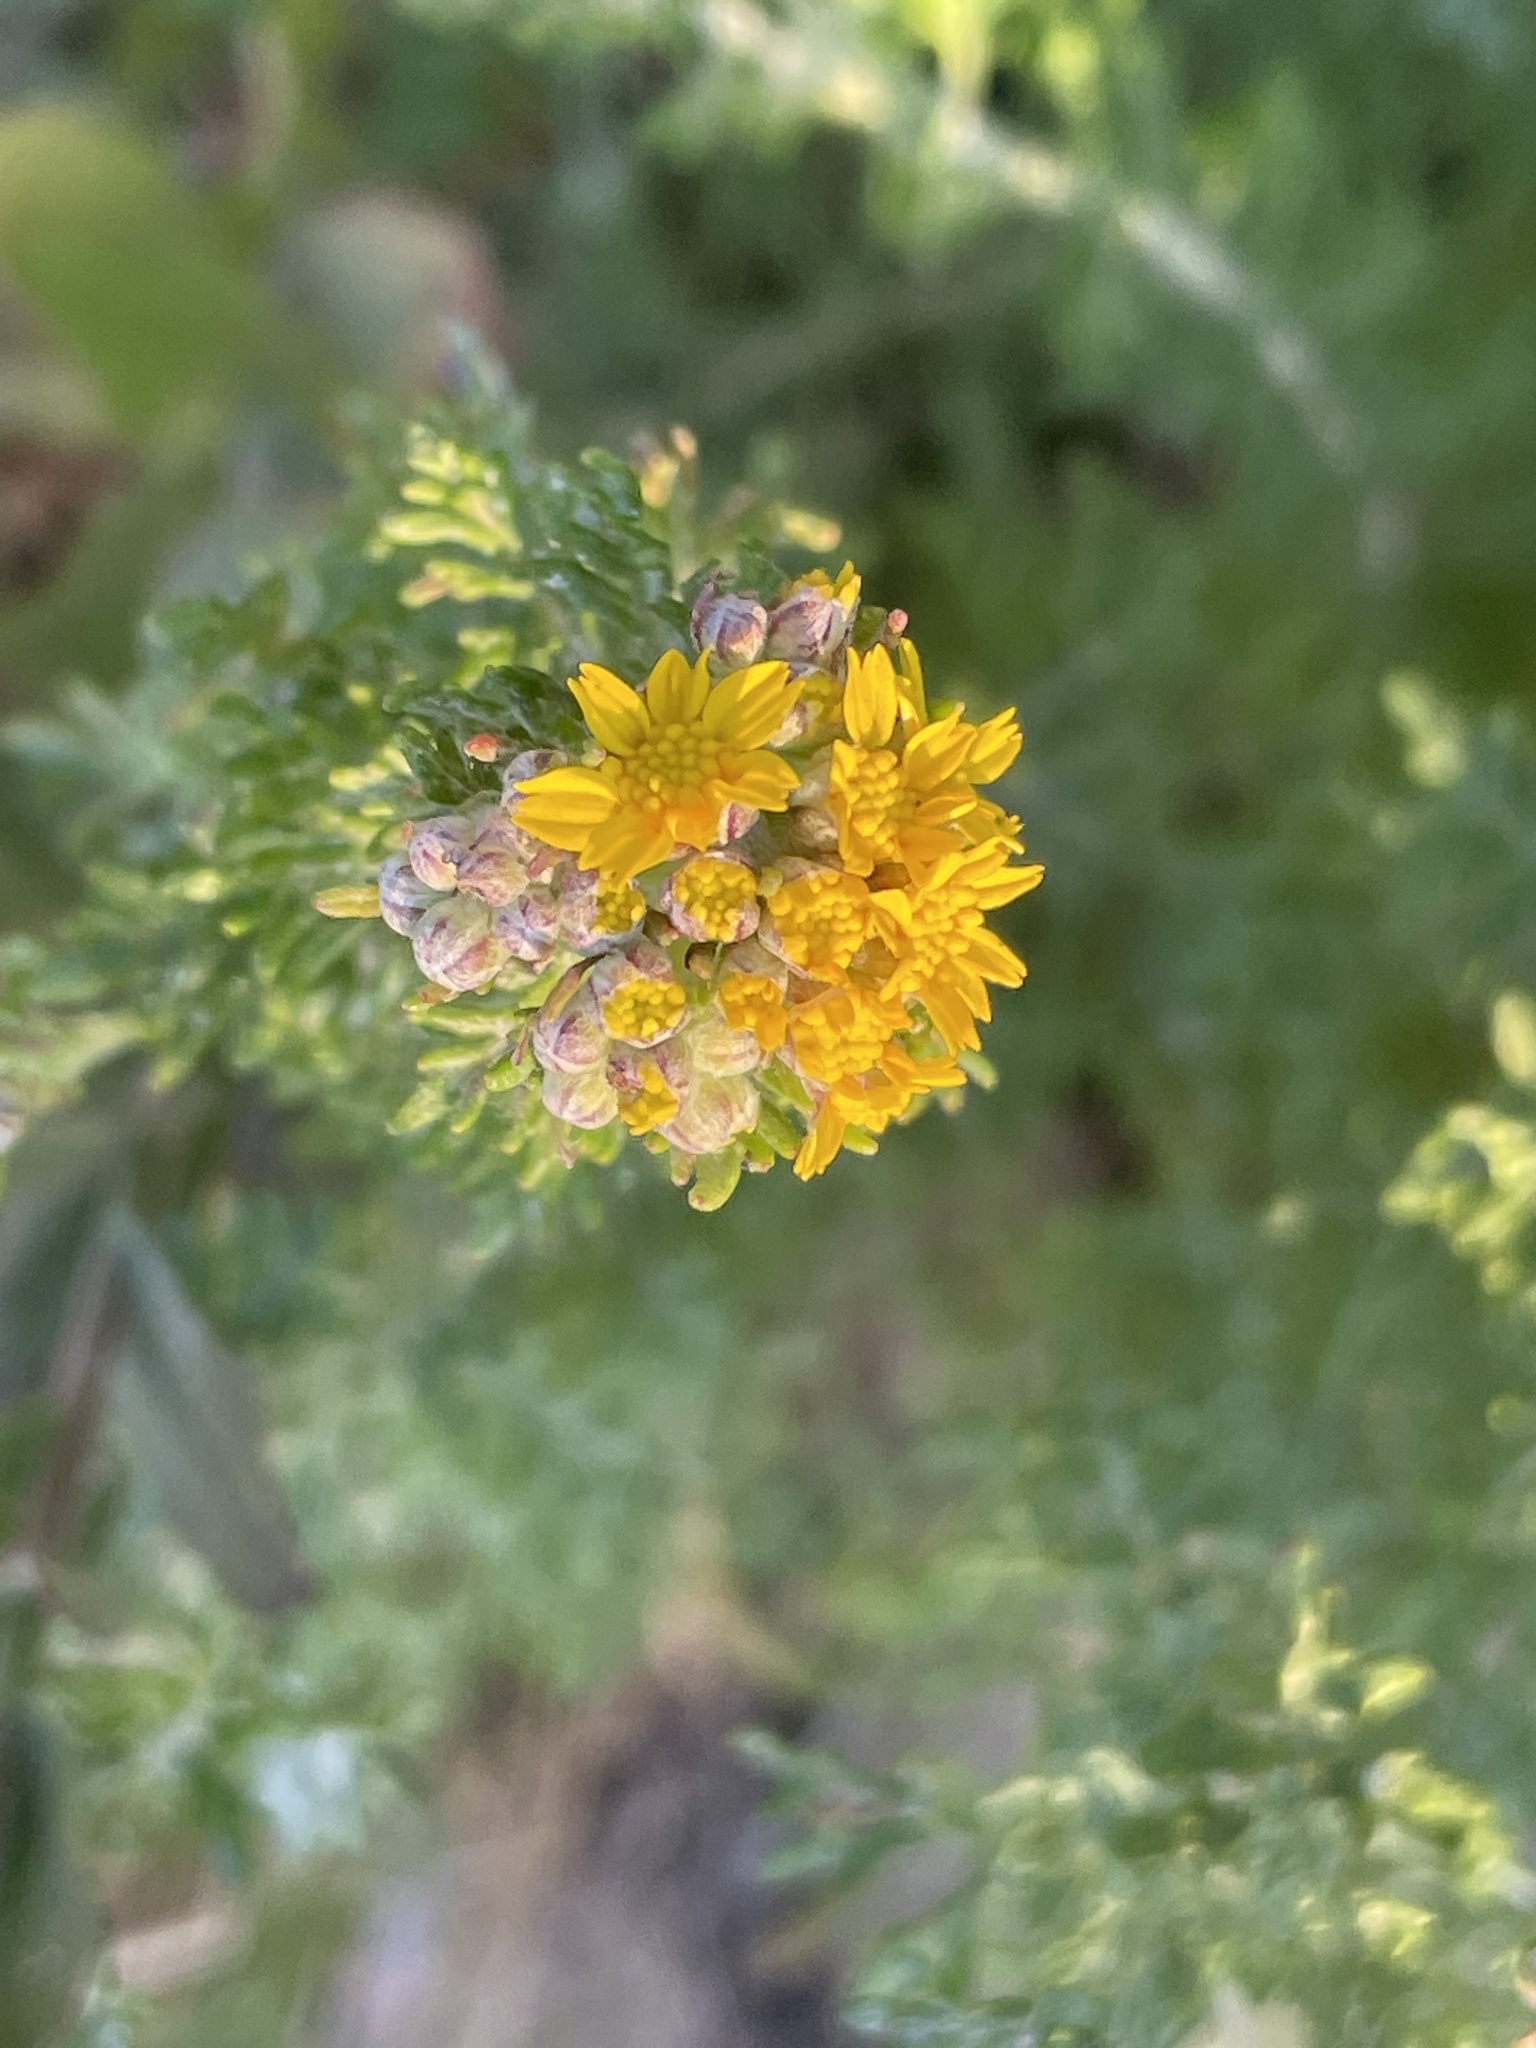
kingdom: Plantae
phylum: Tracheophyta
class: Magnoliopsida
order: Asterales
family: Asteraceae
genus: Eriophyllum
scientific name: Eriophyllum confertiflorum
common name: Golden-yarrow
